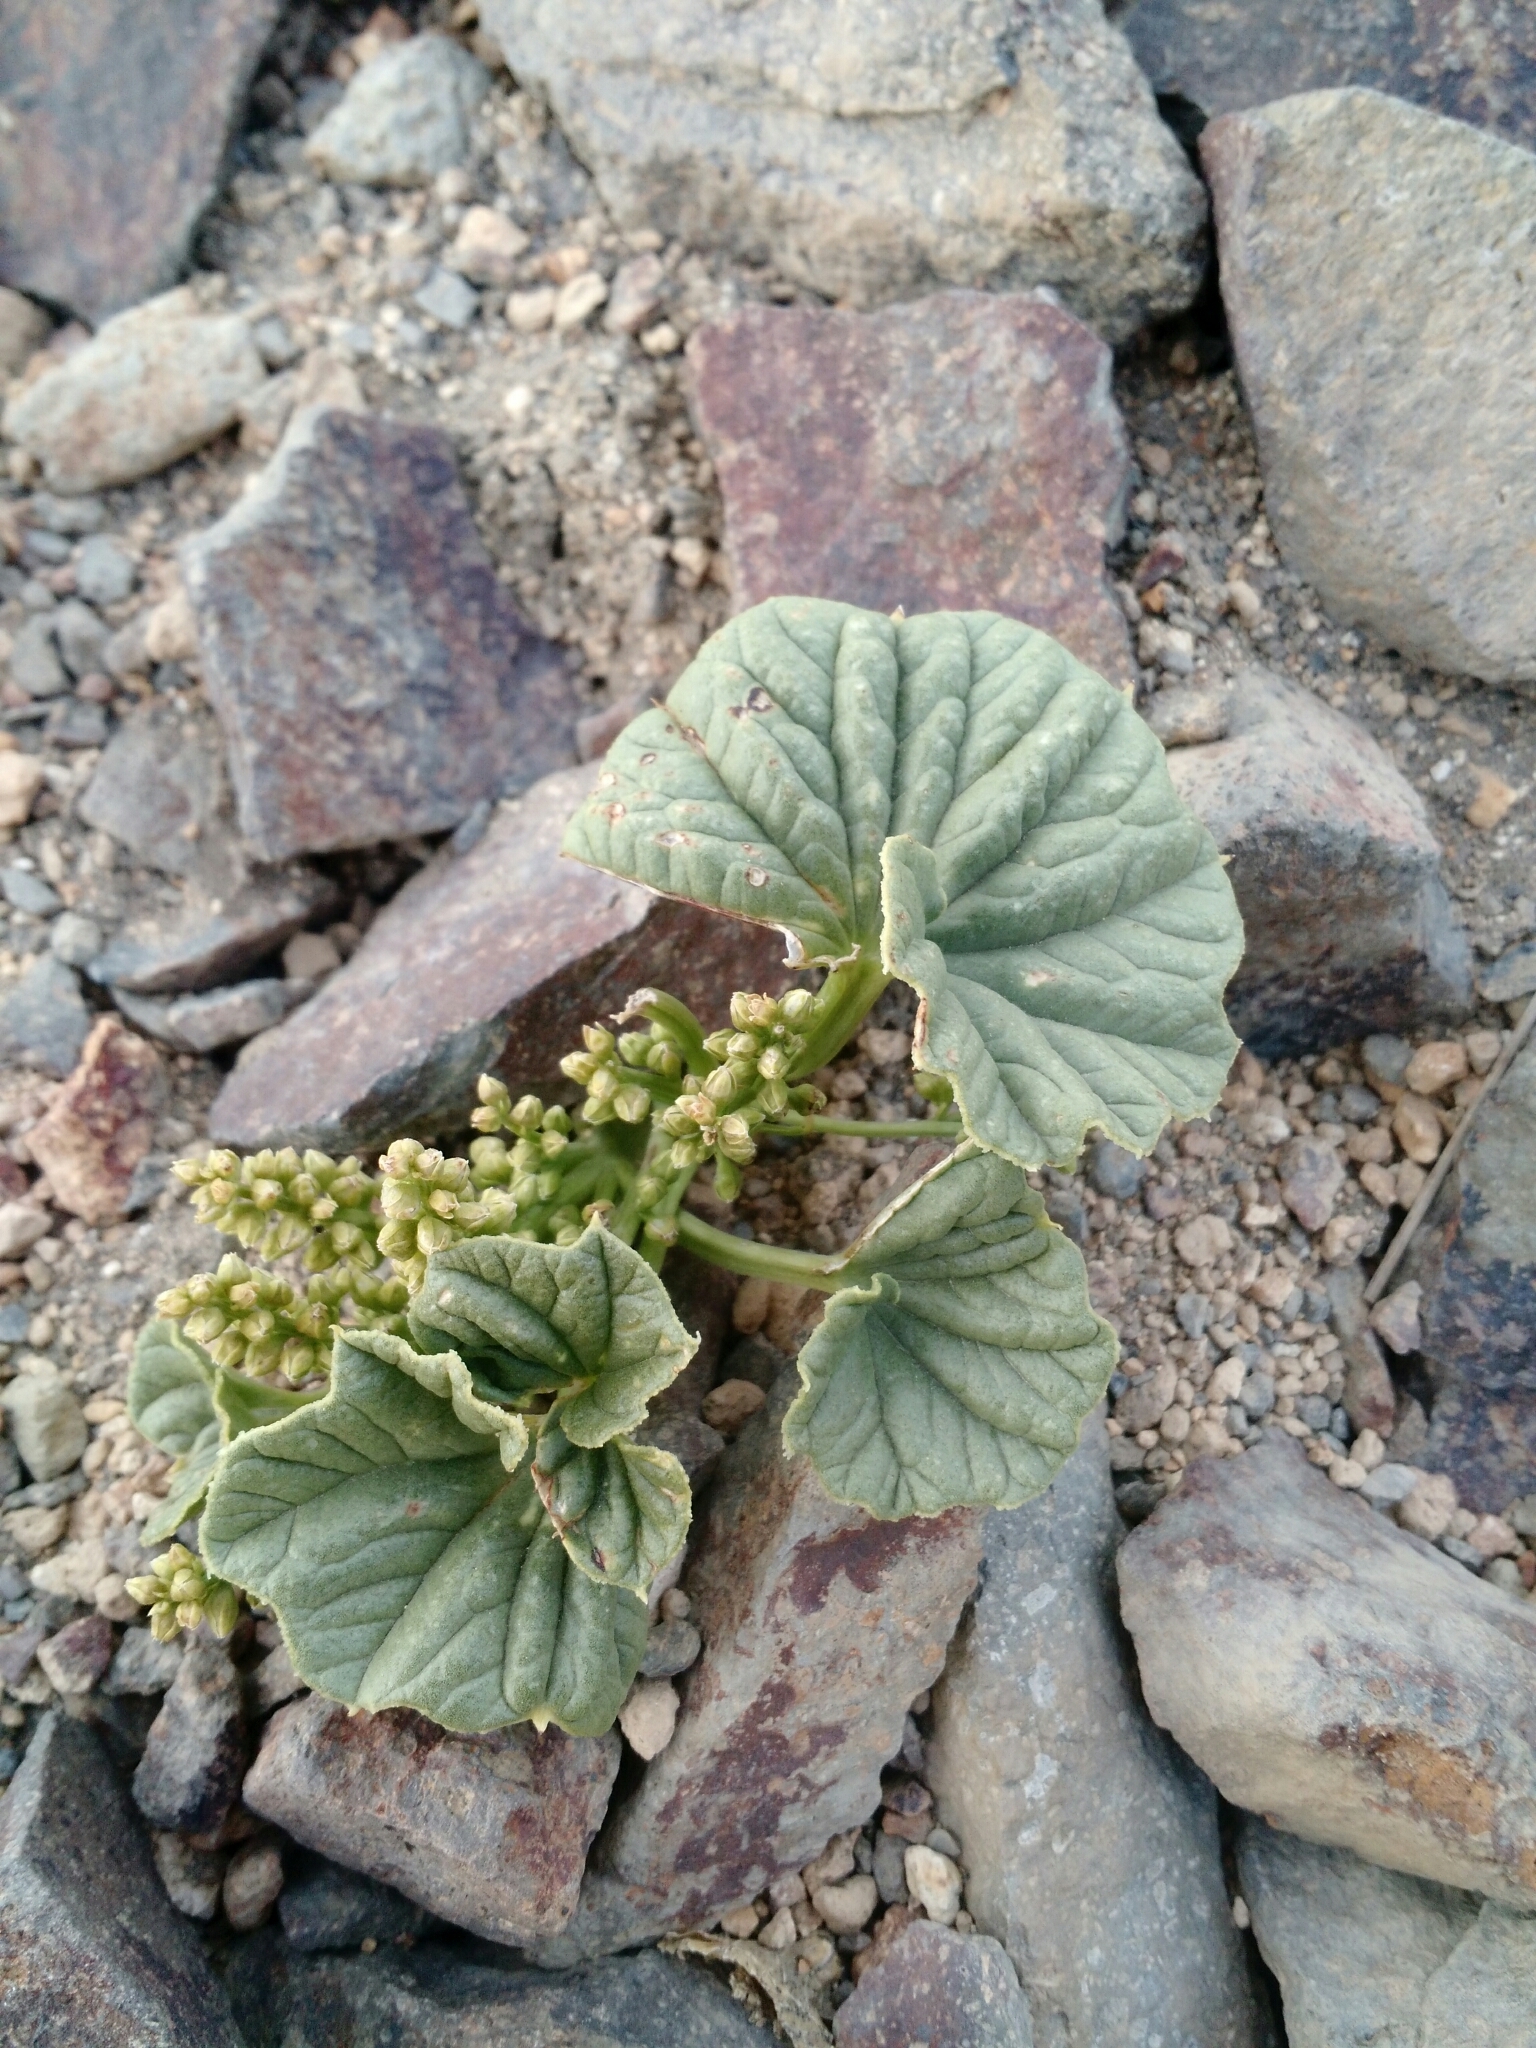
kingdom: Plantae
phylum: Tracheophyta
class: Liliopsida
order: Dioscoreales
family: Dioscoreaceae
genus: Dioscorea
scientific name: Dioscorea volckmannii
